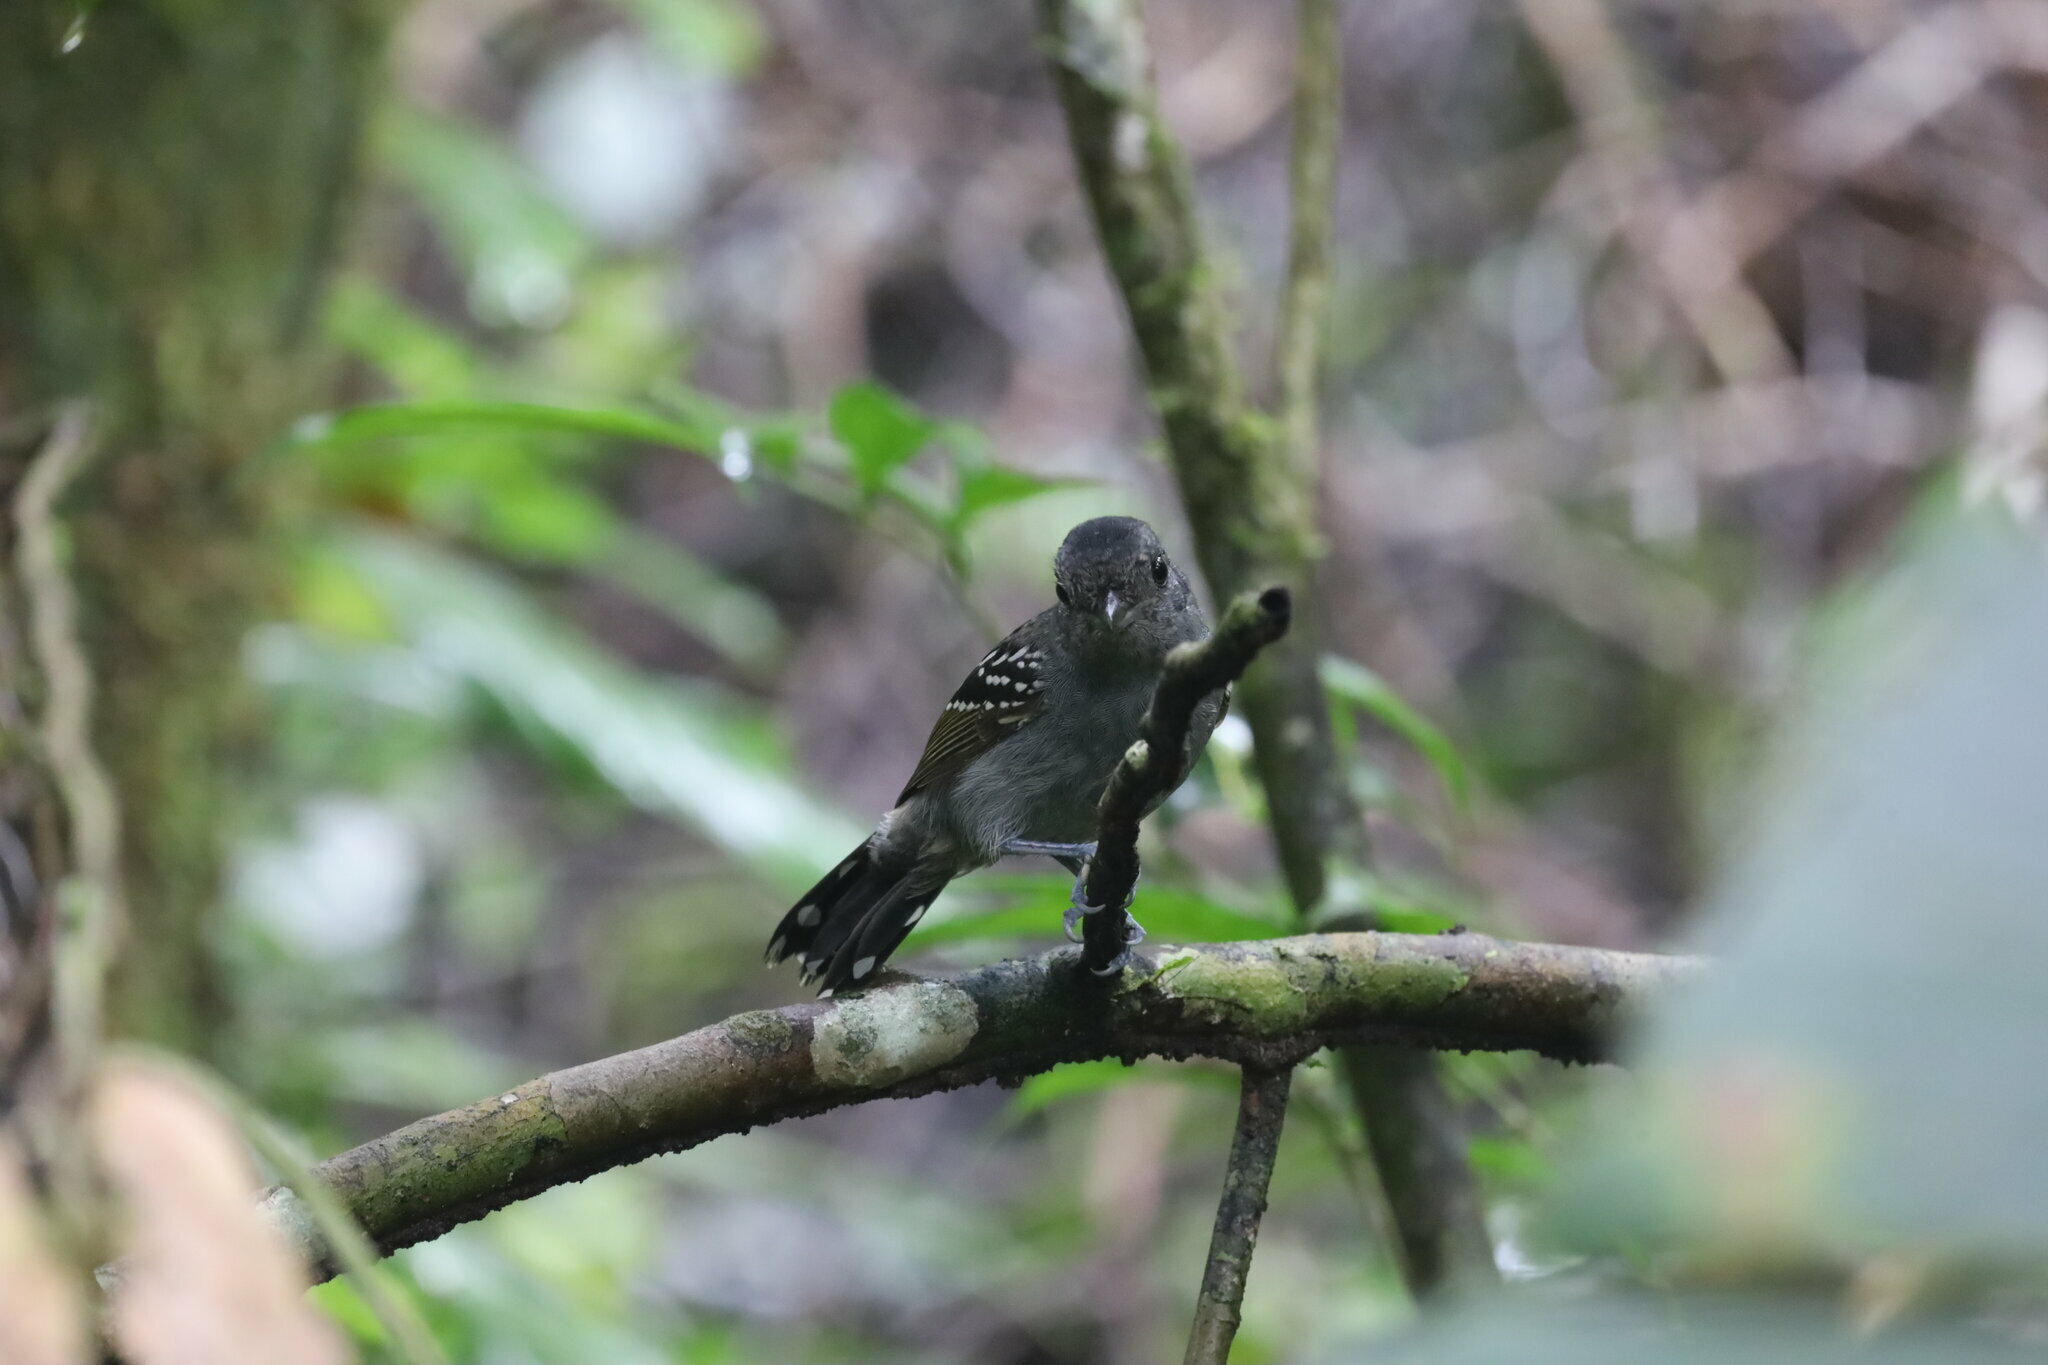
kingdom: Animalia
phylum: Chordata
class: Aves
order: Passeriformes
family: Thamnophilidae
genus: Thamnophilus
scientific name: Thamnophilus atrinucha
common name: Black-crowned antshrike
